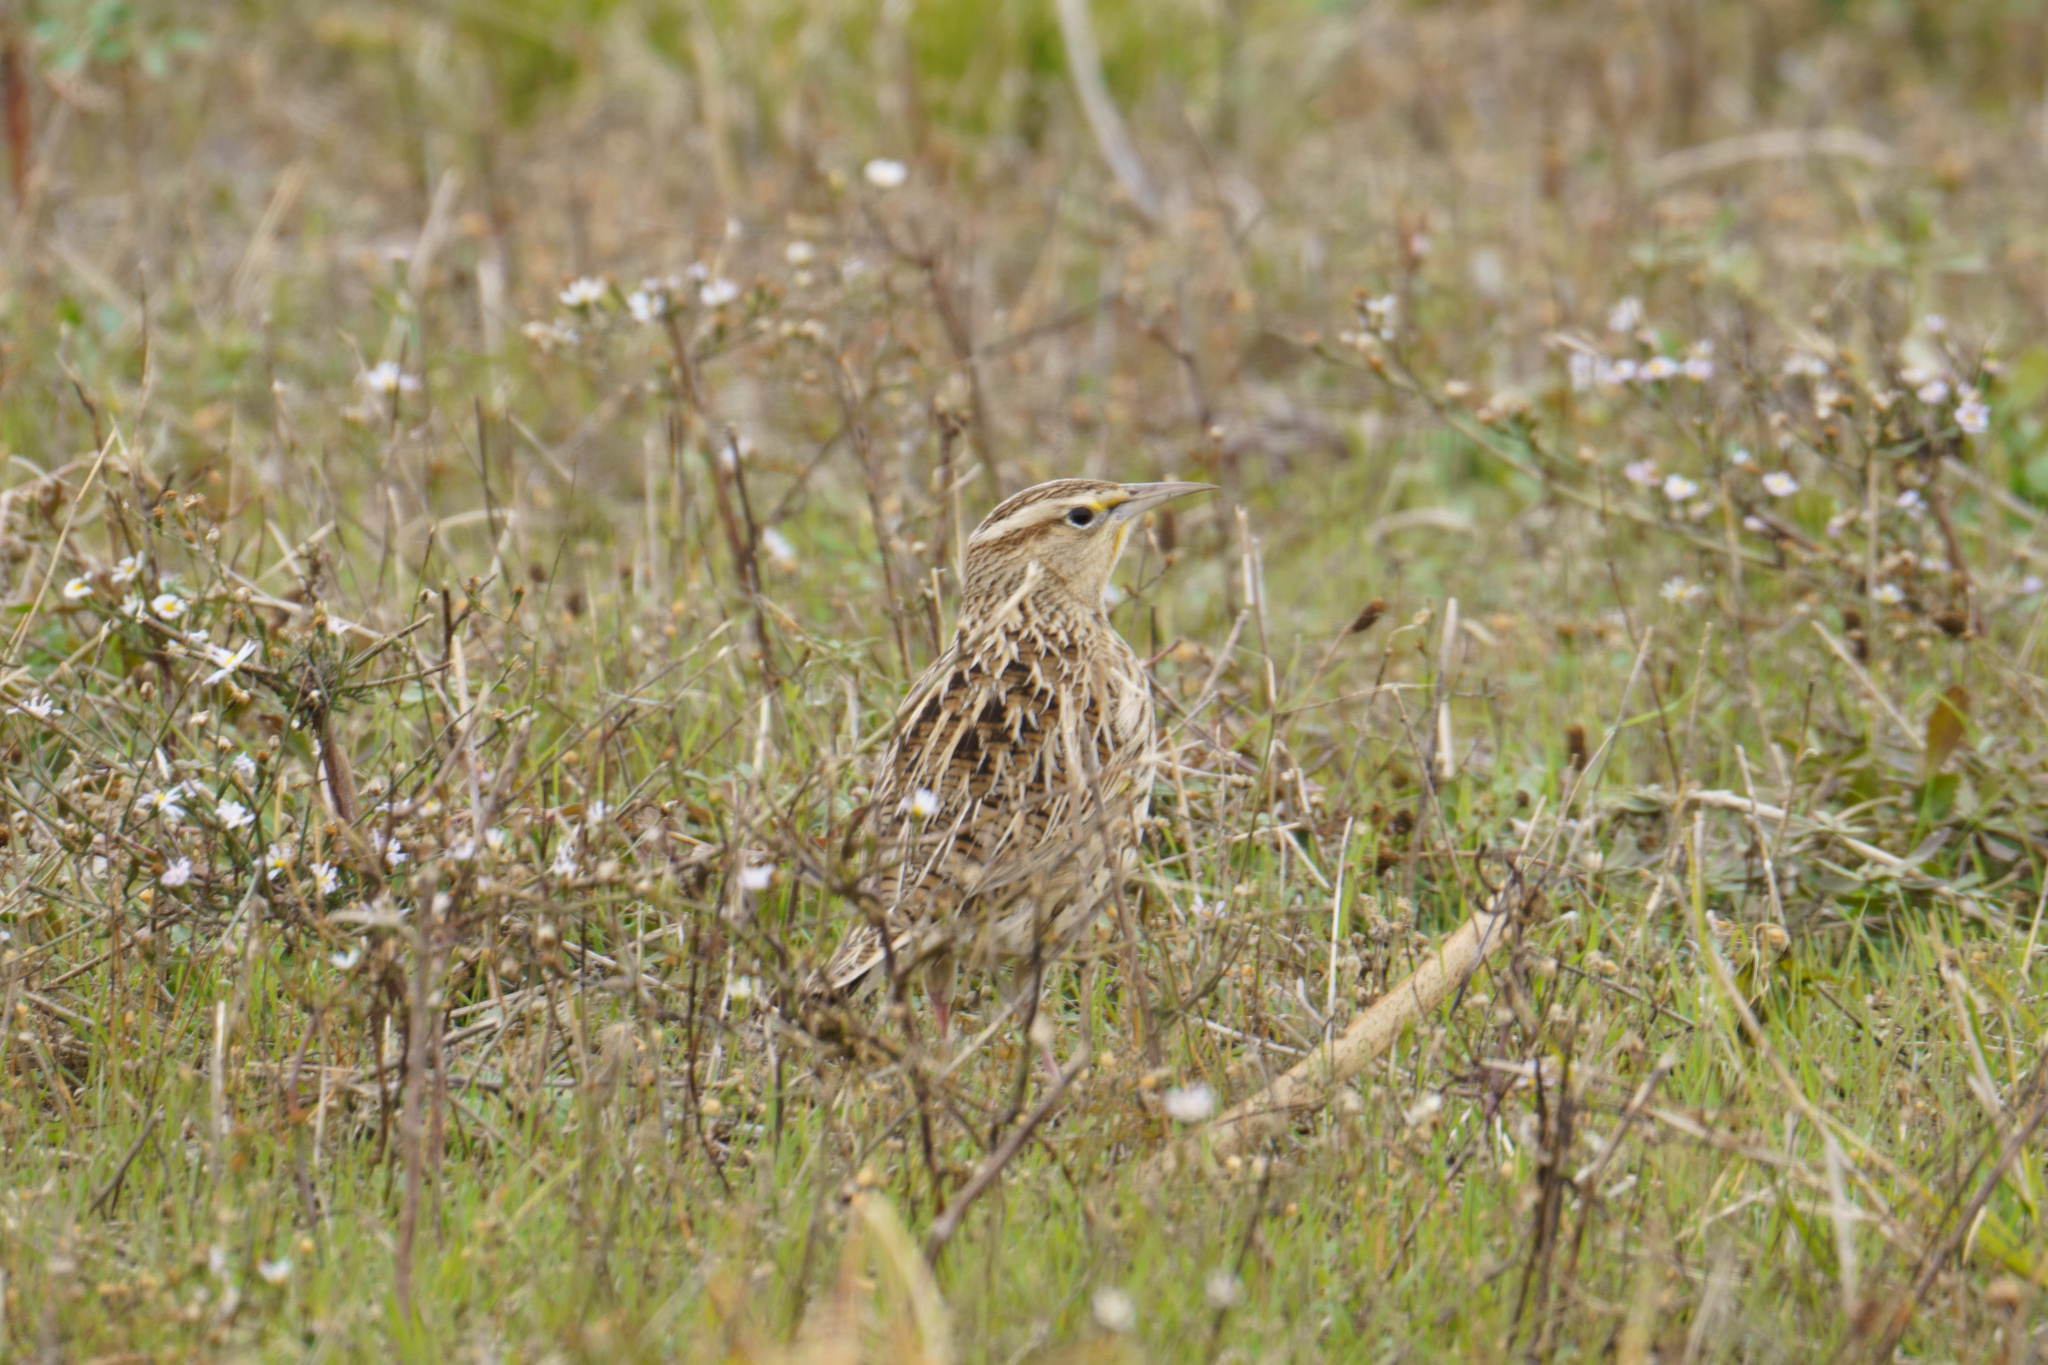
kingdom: Animalia
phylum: Chordata
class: Aves
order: Passeriformes
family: Icteridae
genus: Sturnella
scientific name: Sturnella neglecta
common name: Western meadowlark
